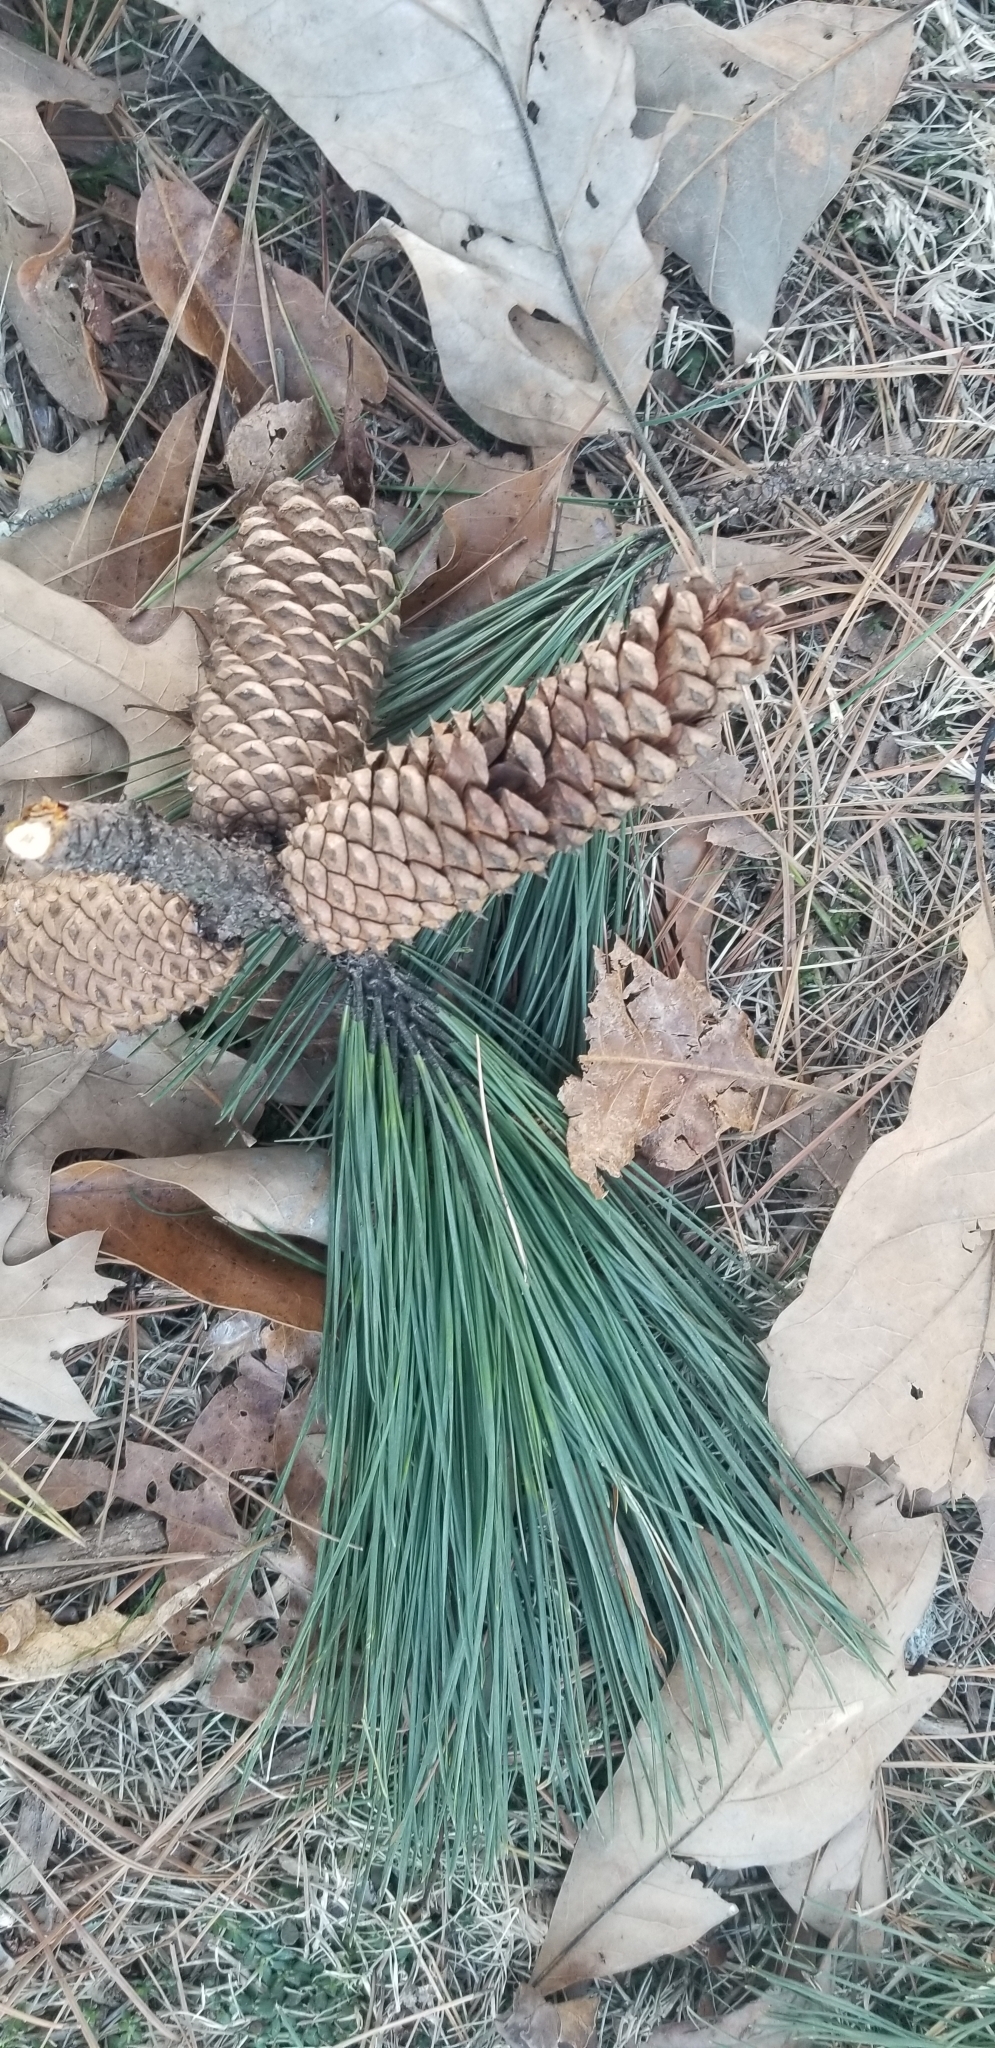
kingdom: Plantae
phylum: Tracheophyta
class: Pinopsida
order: Pinales
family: Pinaceae
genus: Pinus
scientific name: Pinus taeda
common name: Loblolly pine
